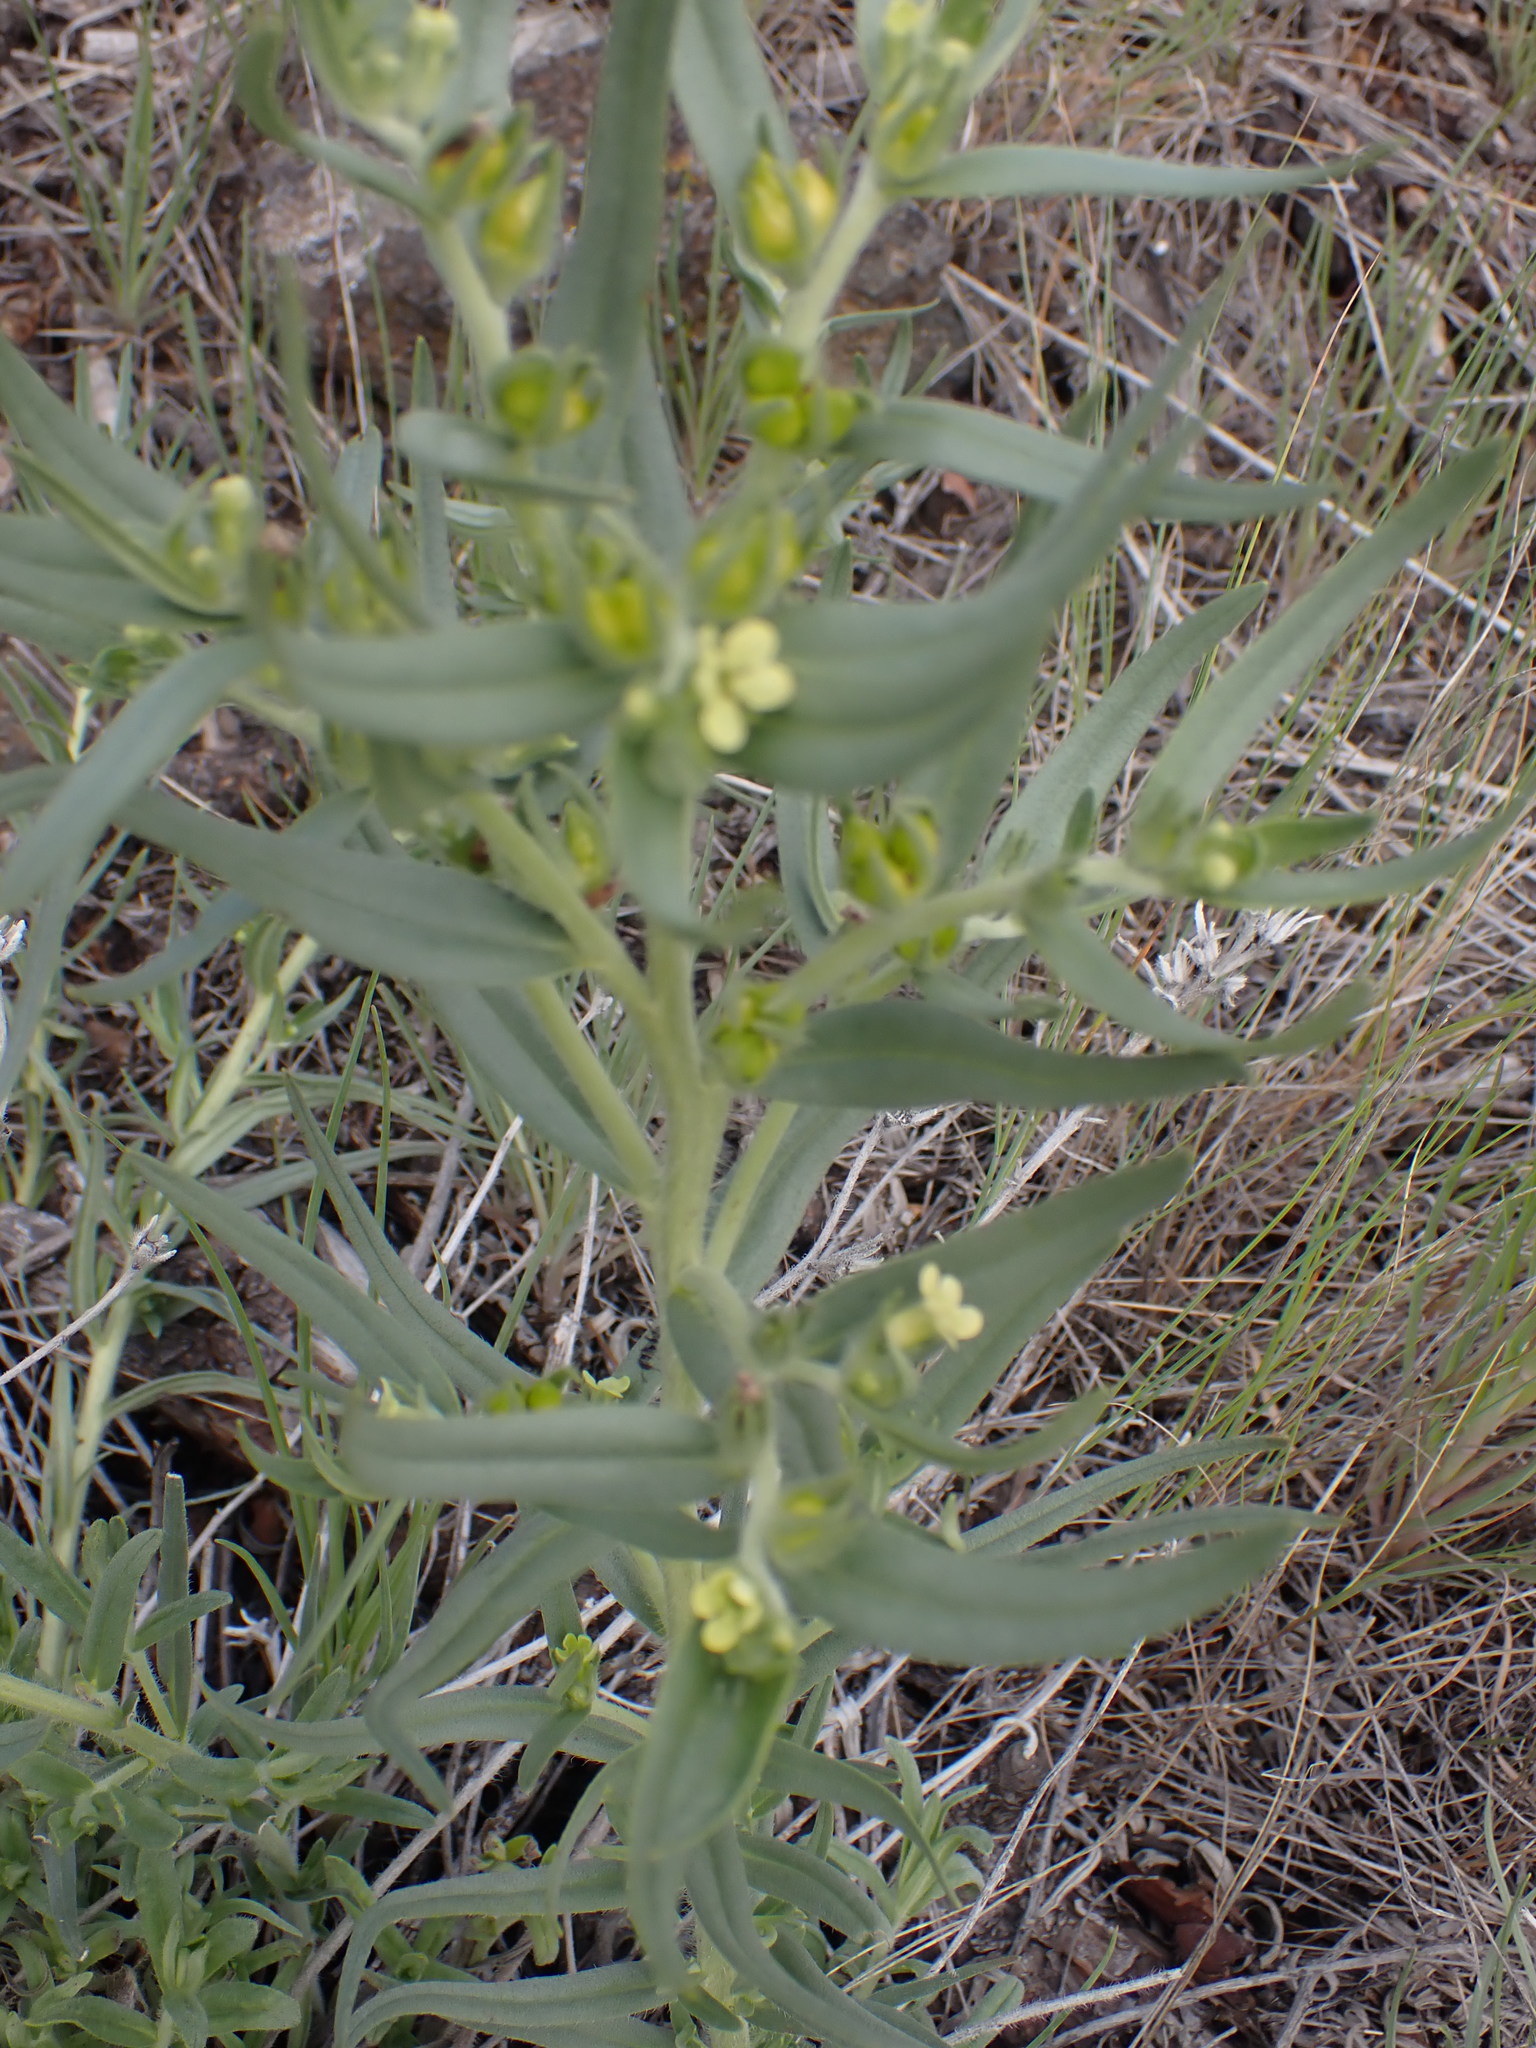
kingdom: Plantae
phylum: Tracheophyta
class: Magnoliopsida
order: Boraginales
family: Boraginaceae
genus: Lithospermum
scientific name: Lithospermum ruderale
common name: Western gromwell
